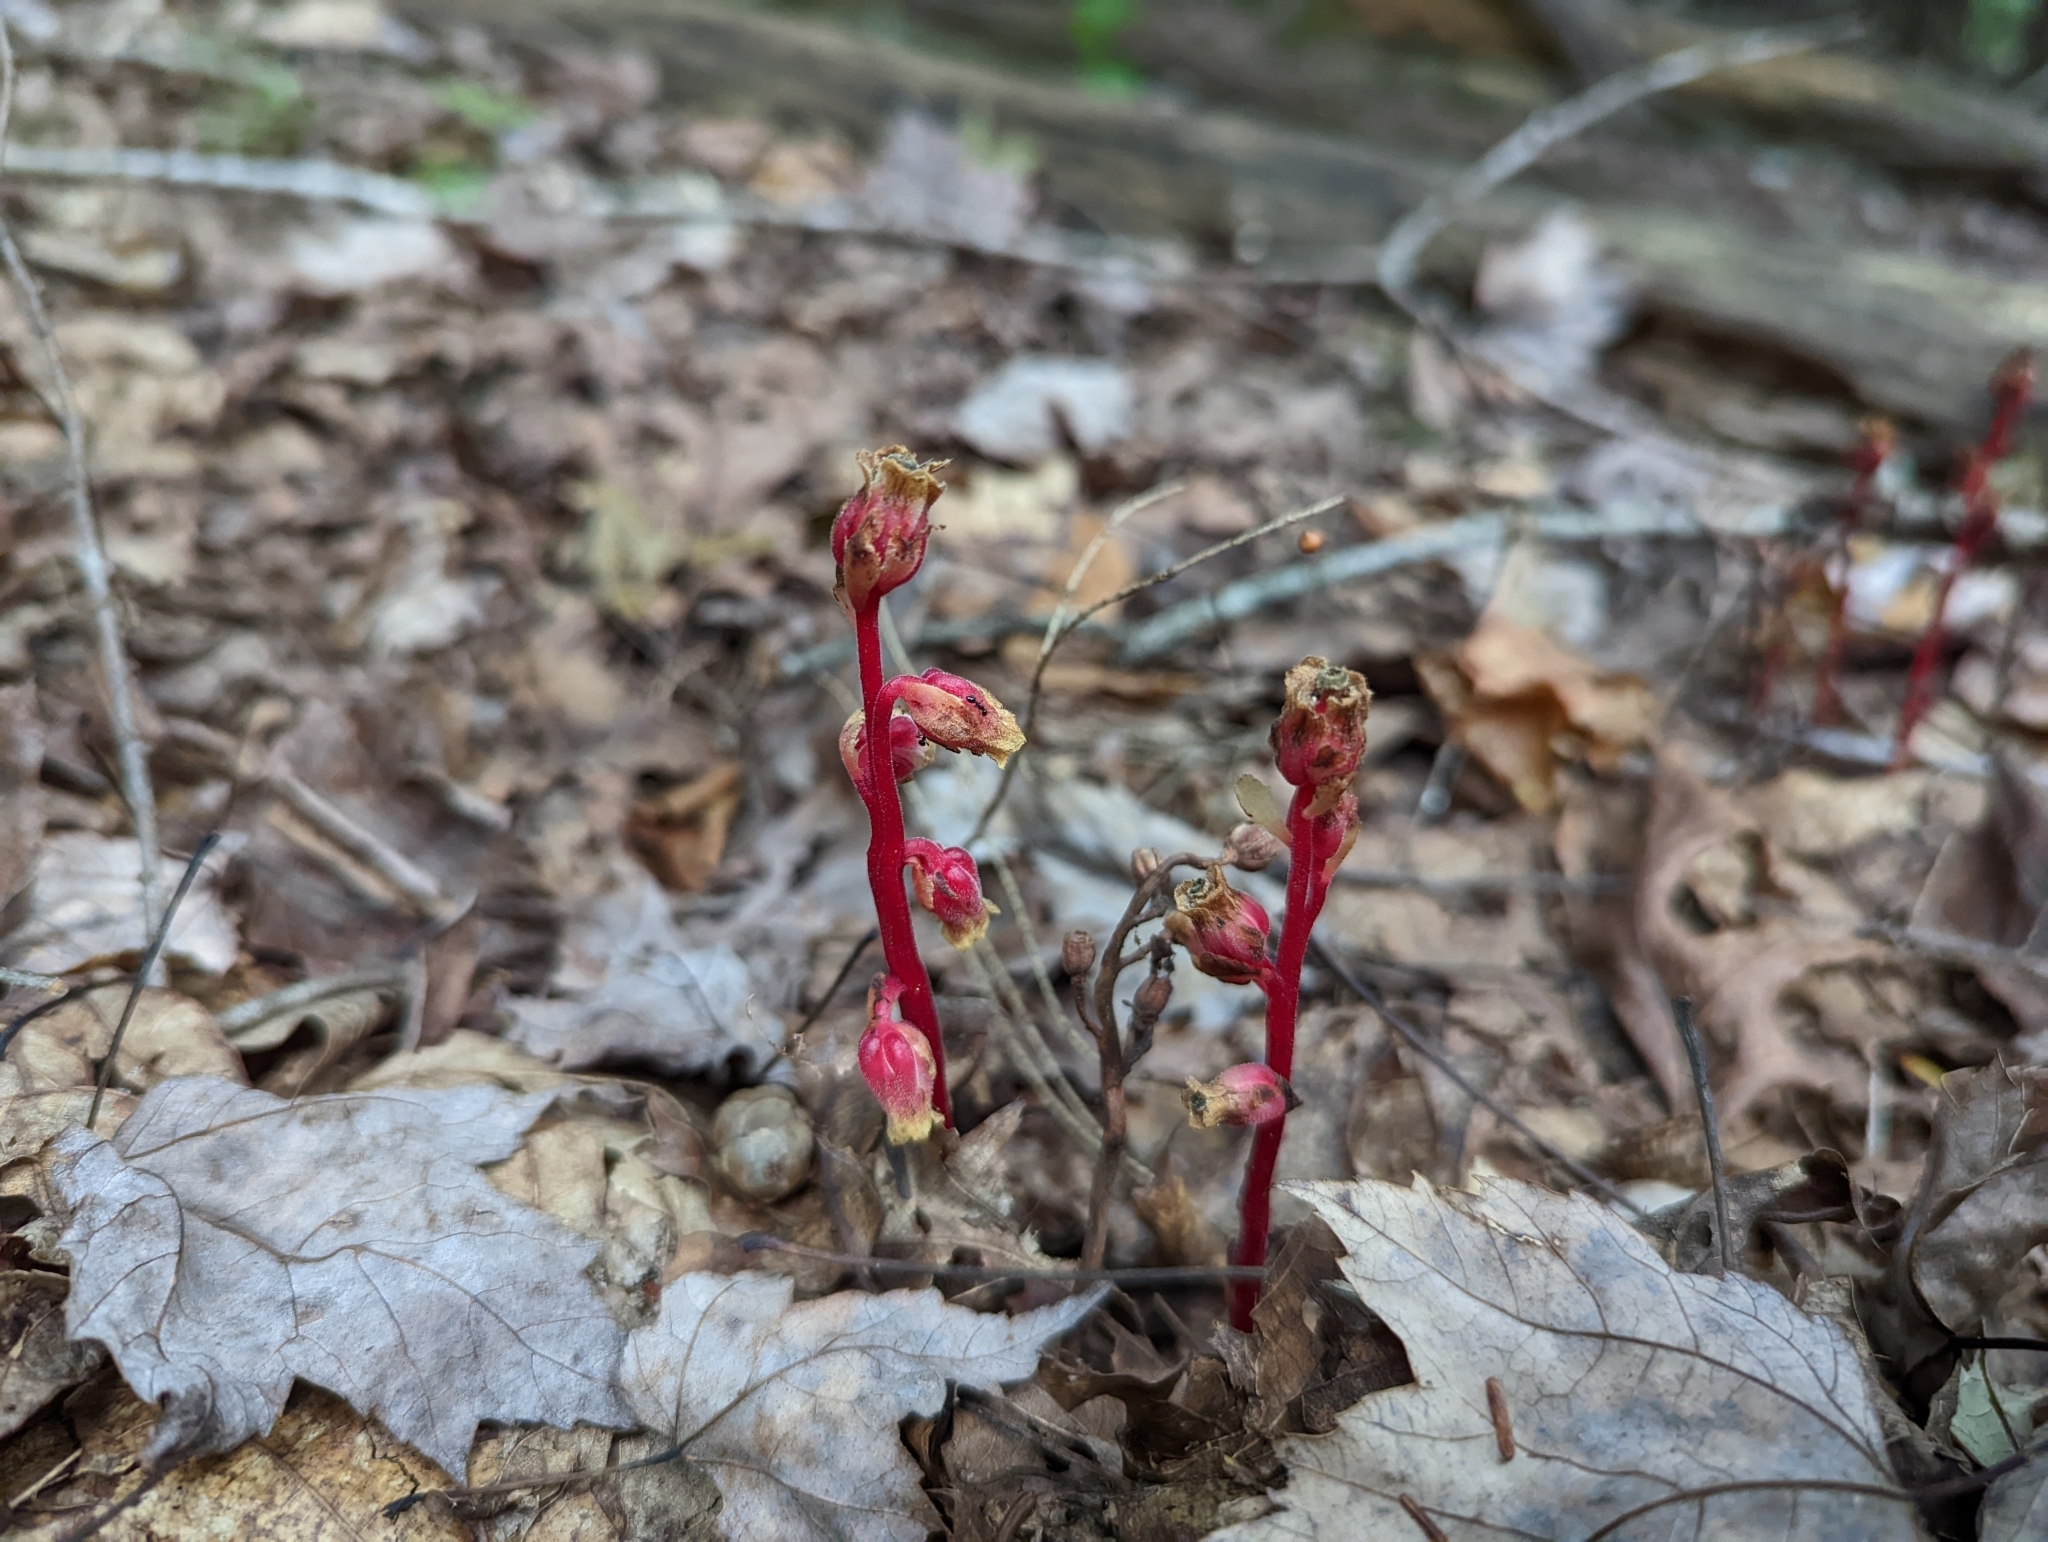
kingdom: Plantae
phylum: Tracheophyta
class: Magnoliopsida
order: Ericales
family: Ericaceae
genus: Hypopitys
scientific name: Hypopitys monotropa
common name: Yellow bird's-nest
